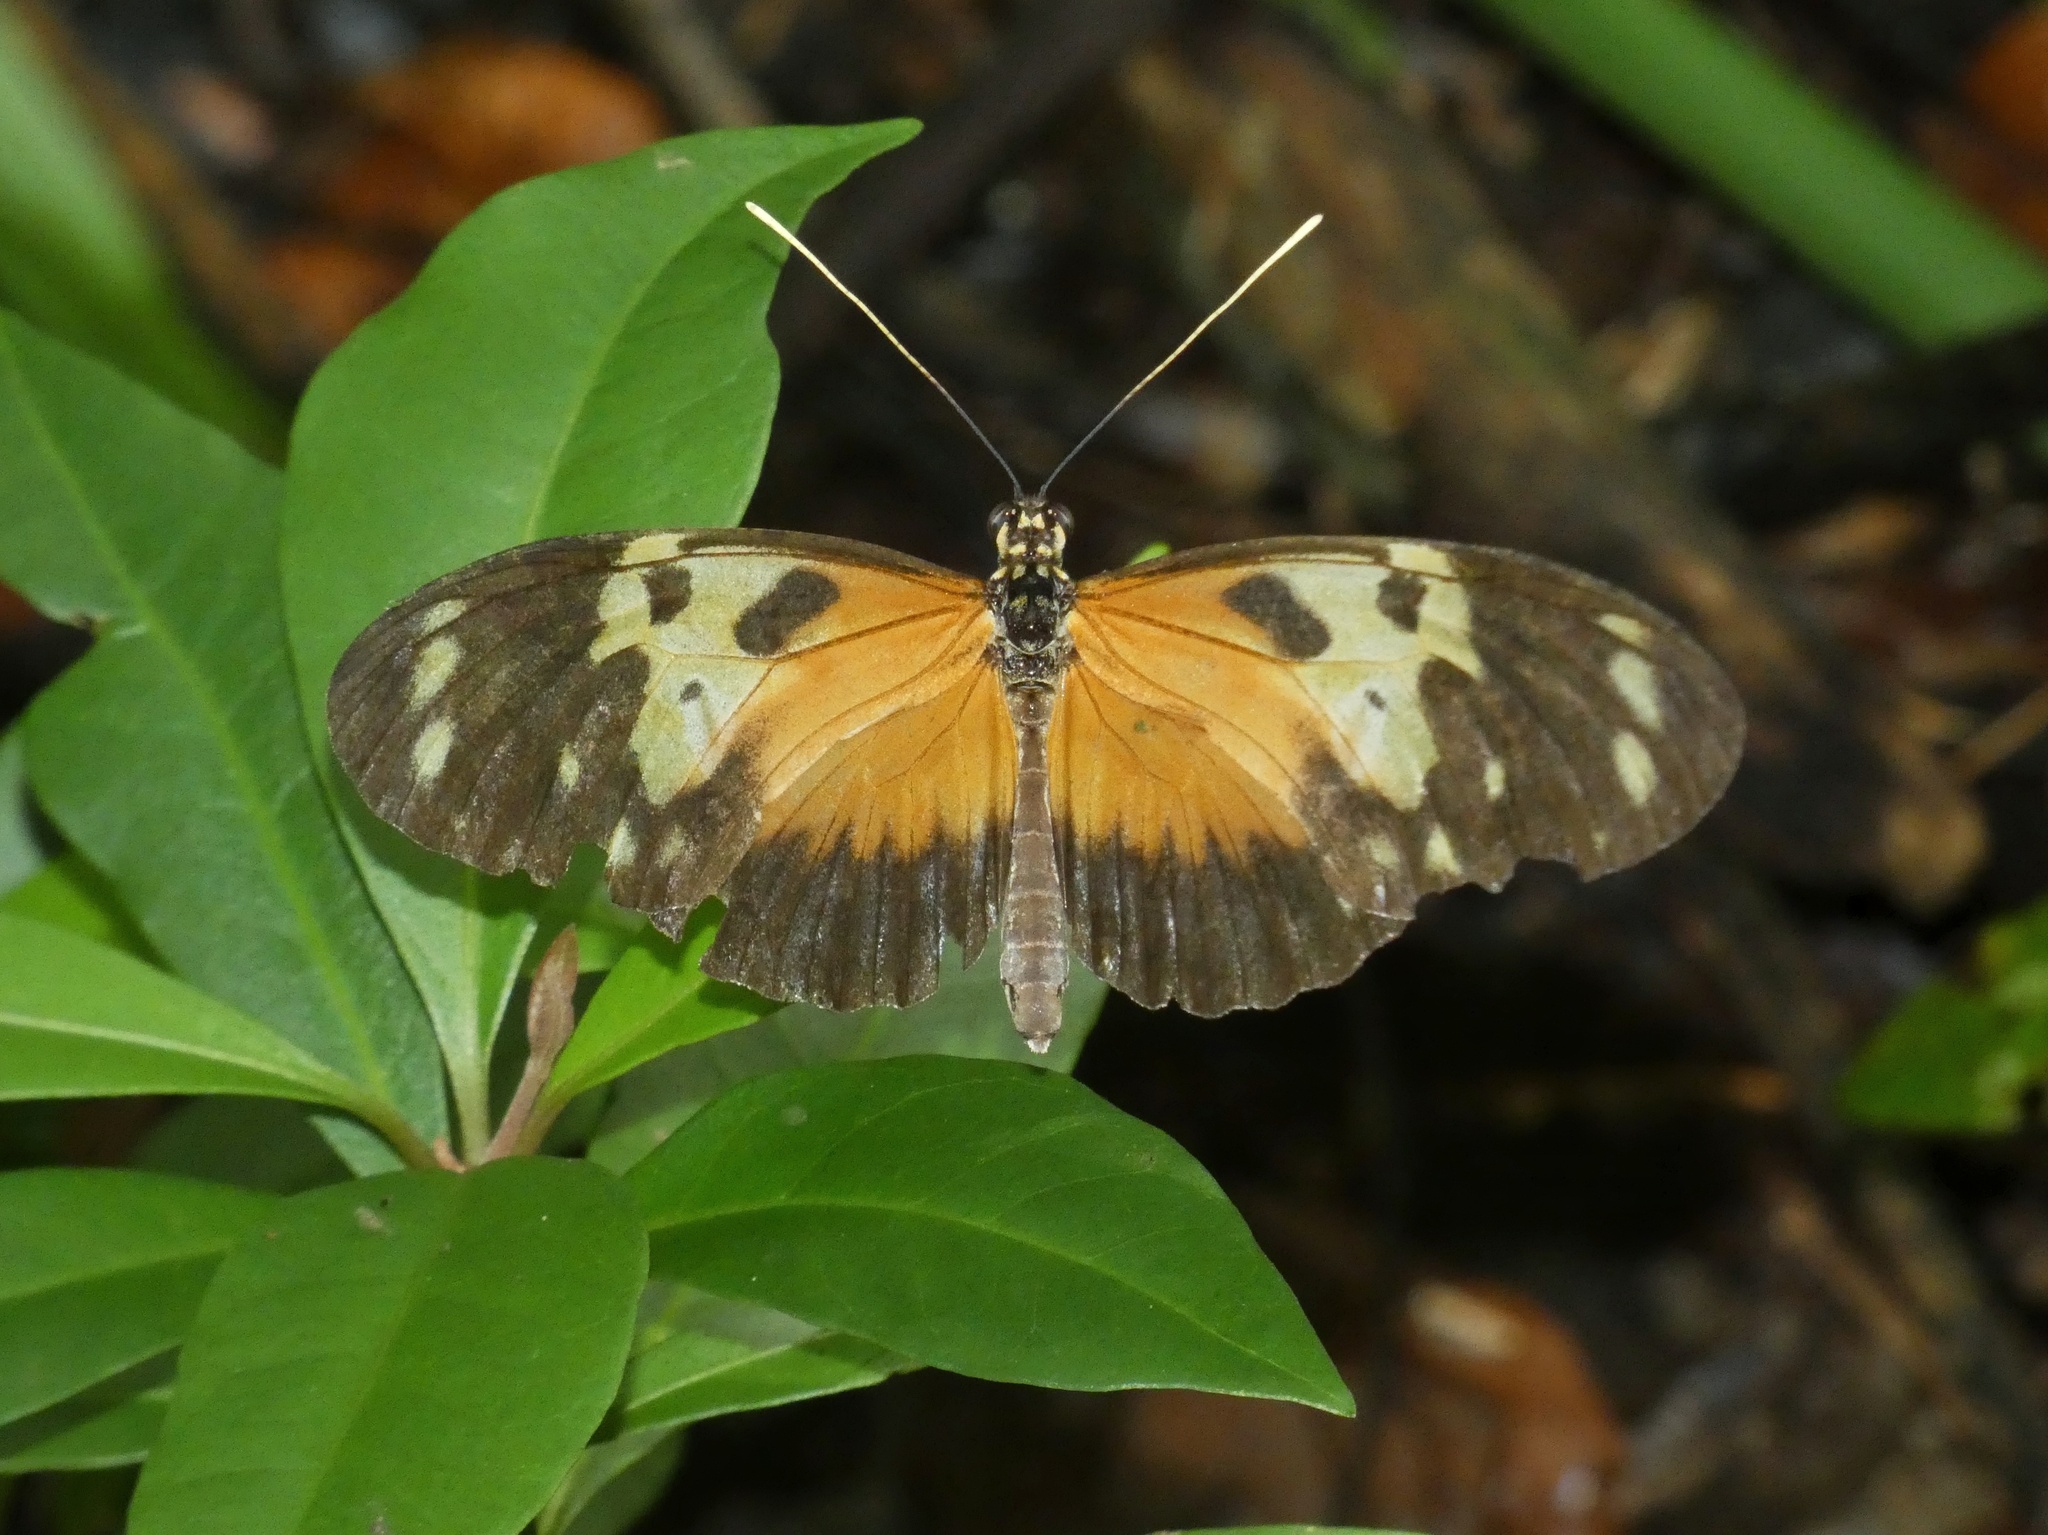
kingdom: Animalia
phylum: Arthropoda
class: Insecta
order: Lepidoptera
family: Nymphalidae
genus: Heliconius
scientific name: Heliconius hecale
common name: Tiger longwing
